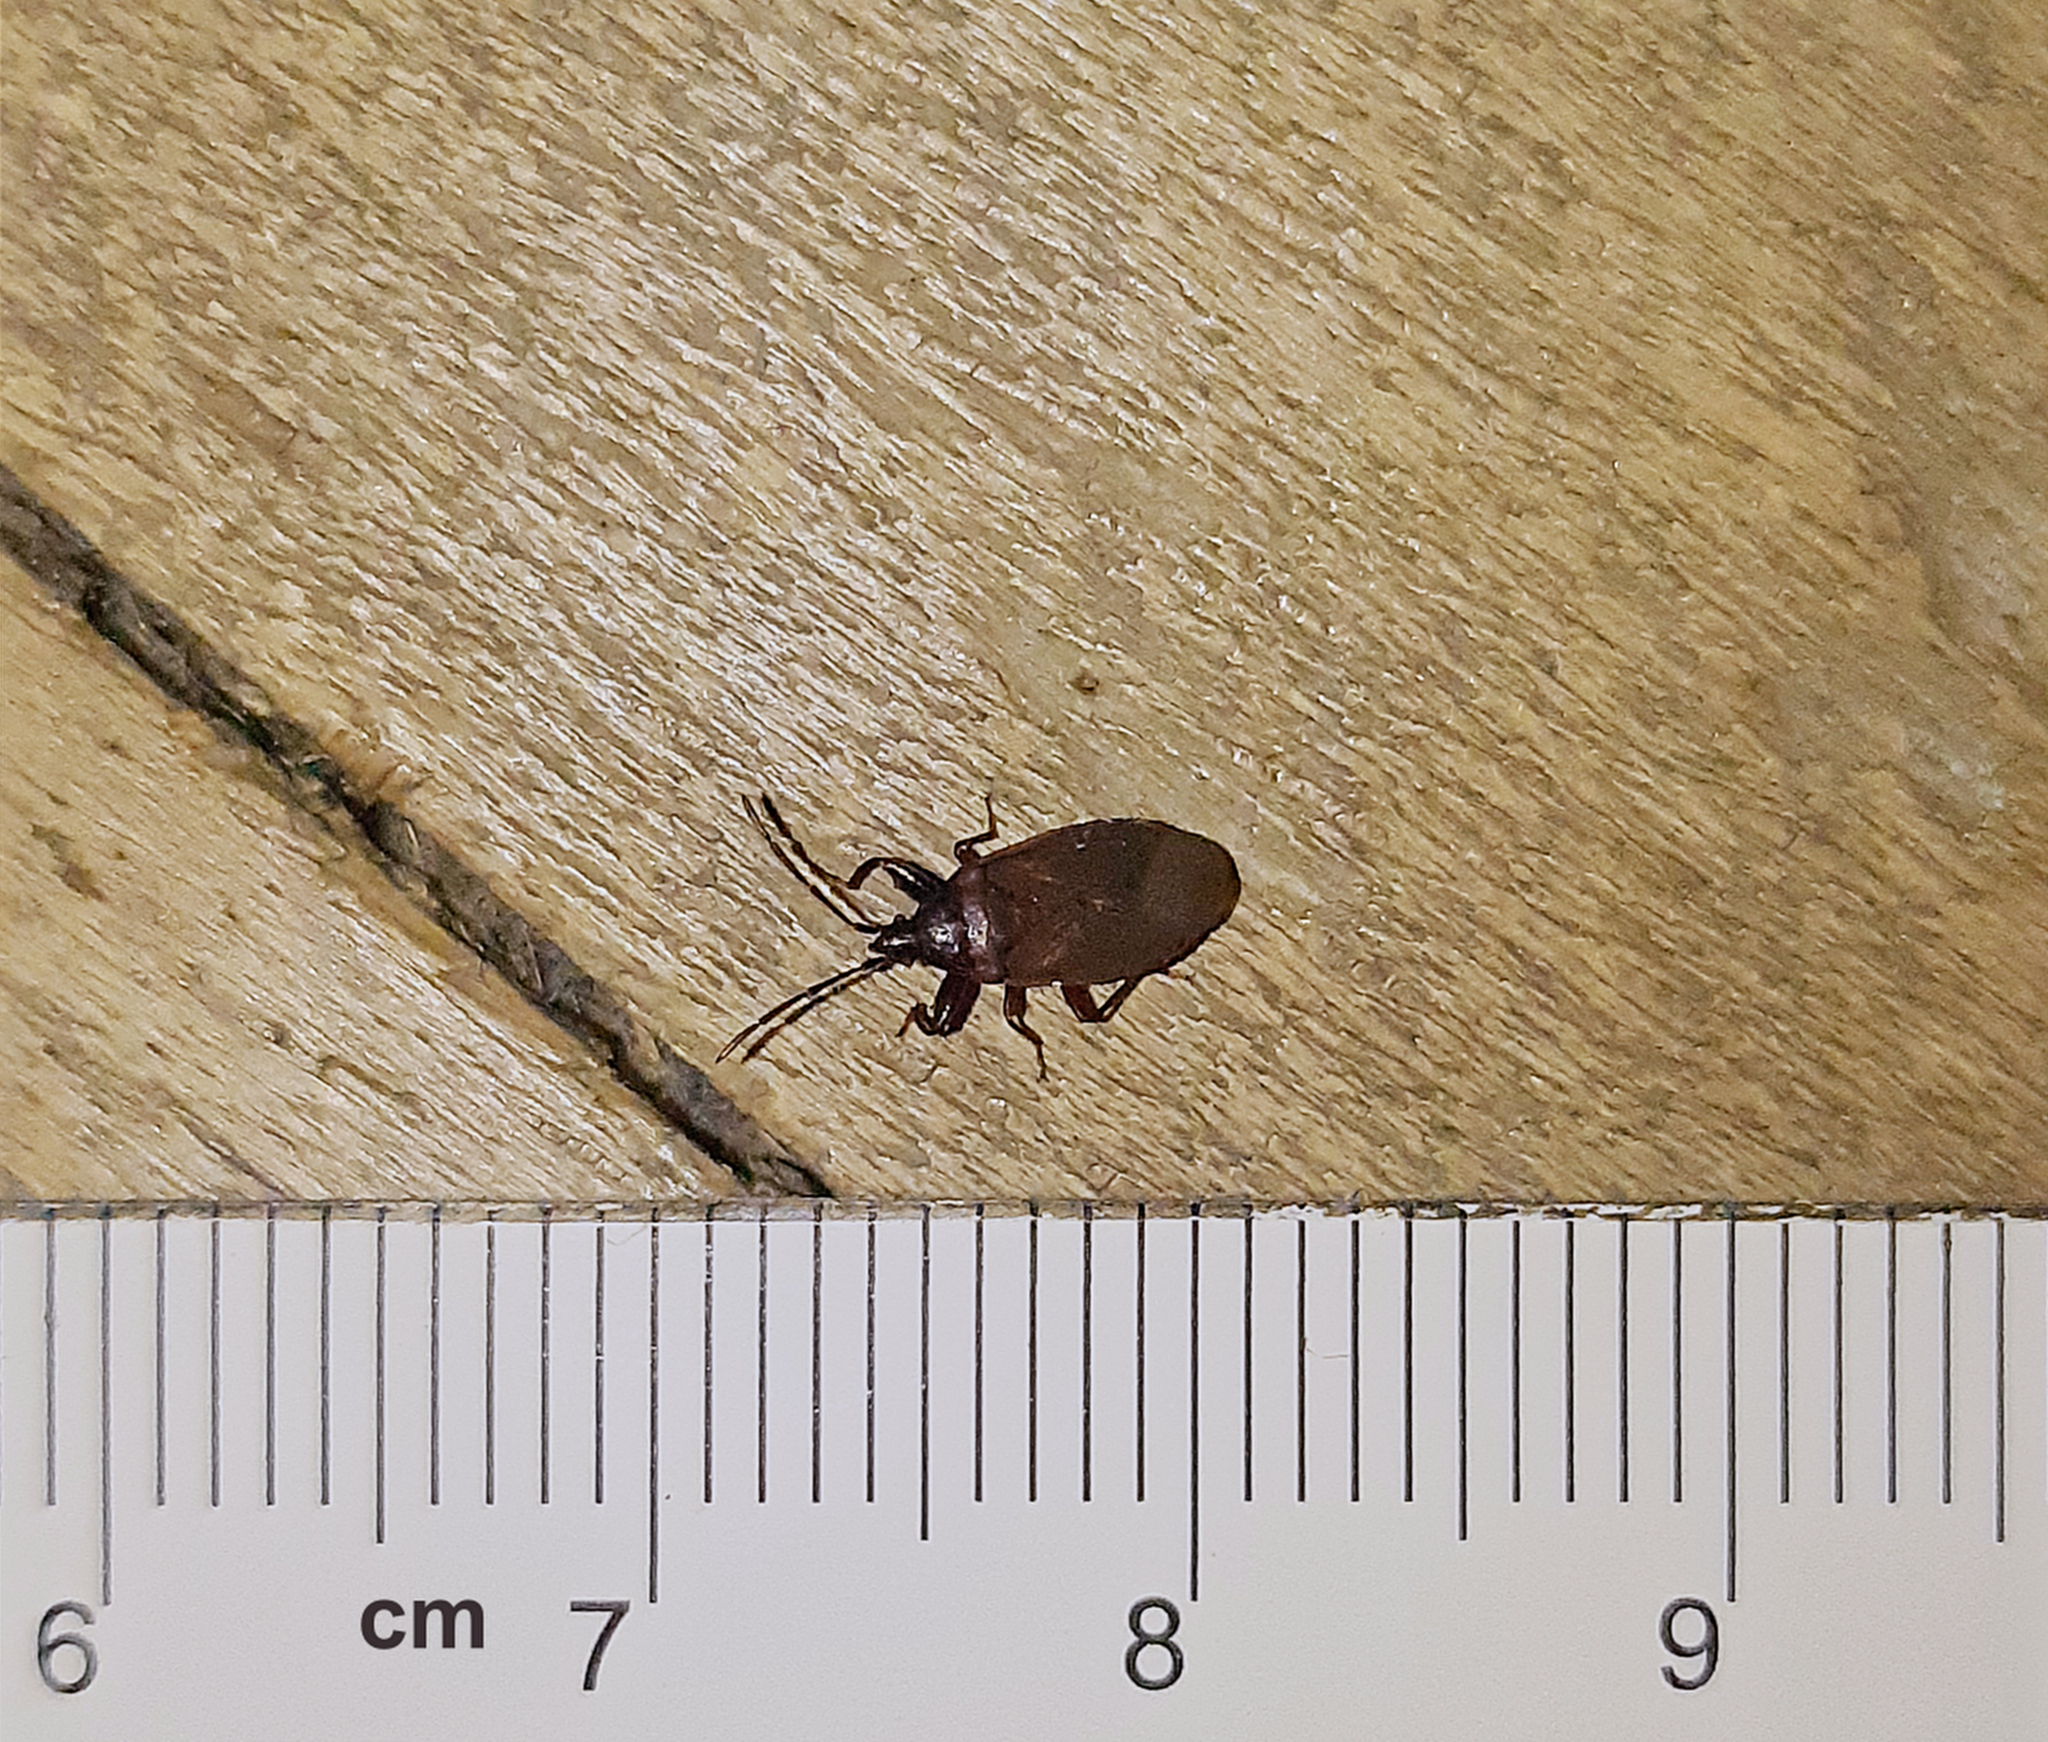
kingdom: Animalia
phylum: Arthropoda
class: Insecta
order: Hemiptera
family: Rhyparochromidae
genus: Gastrodes
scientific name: Gastrodes grossipes
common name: Pine cone bug
